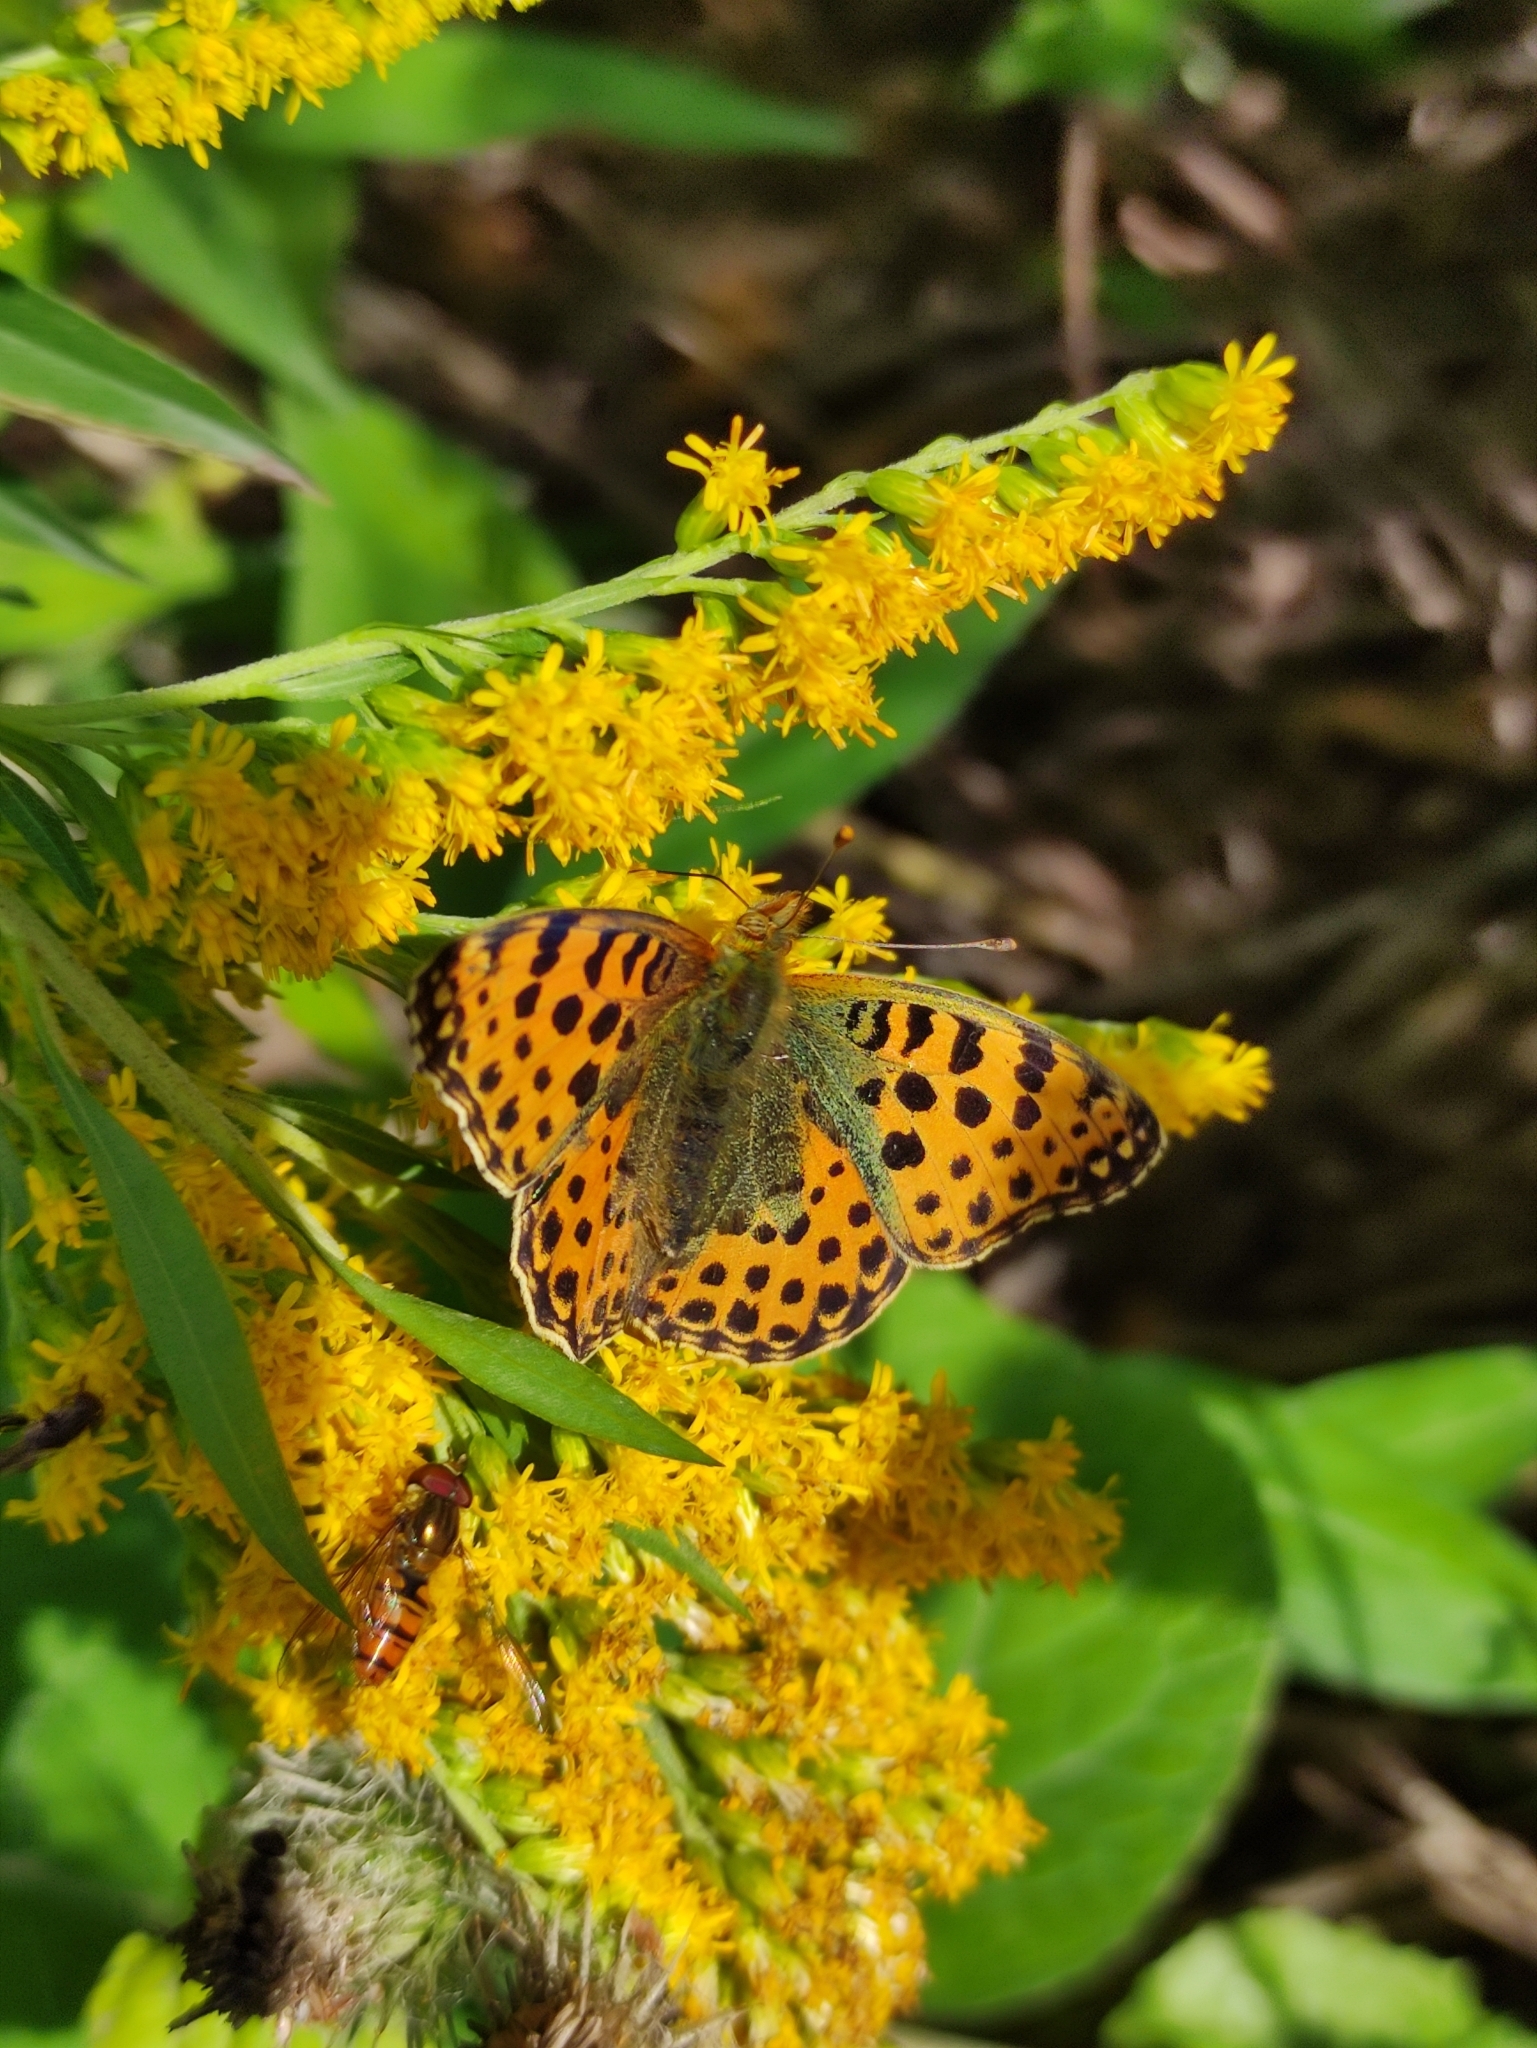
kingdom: Animalia
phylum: Arthropoda
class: Insecta
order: Lepidoptera
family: Nymphalidae
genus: Issoria
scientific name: Issoria lathonia
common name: Queen of spain fritillary
